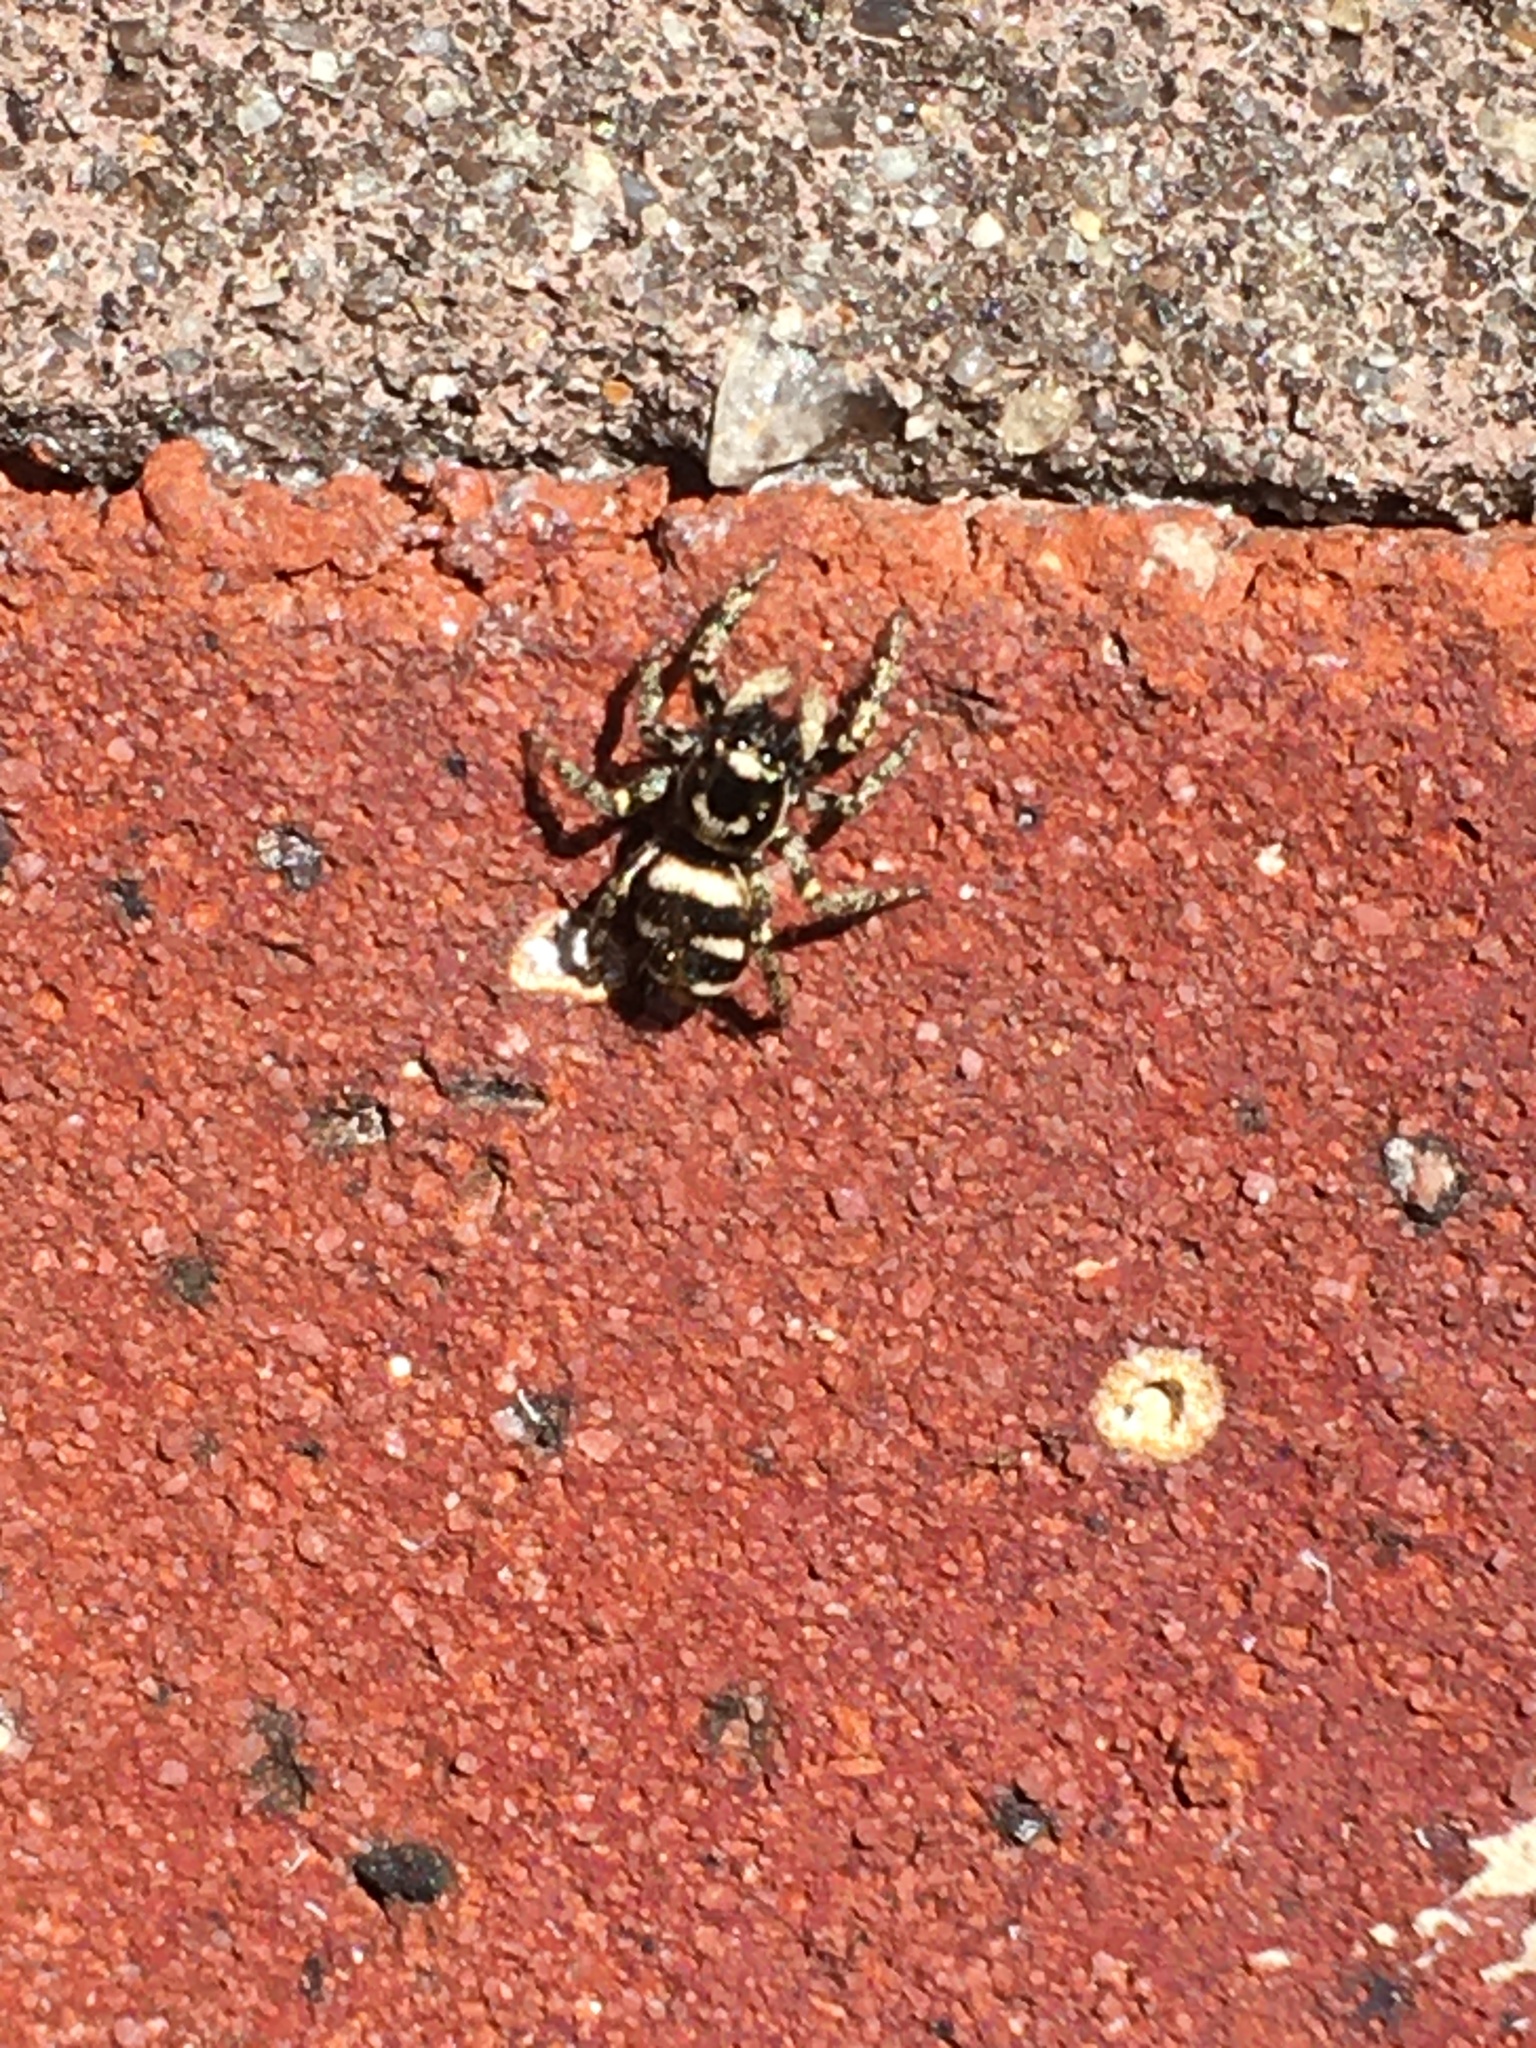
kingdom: Animalia
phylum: Arthropoda
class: Arachnida
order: Araneae
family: Salticidae
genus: Salticus
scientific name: Salticus scenicus
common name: Zebra jumper
